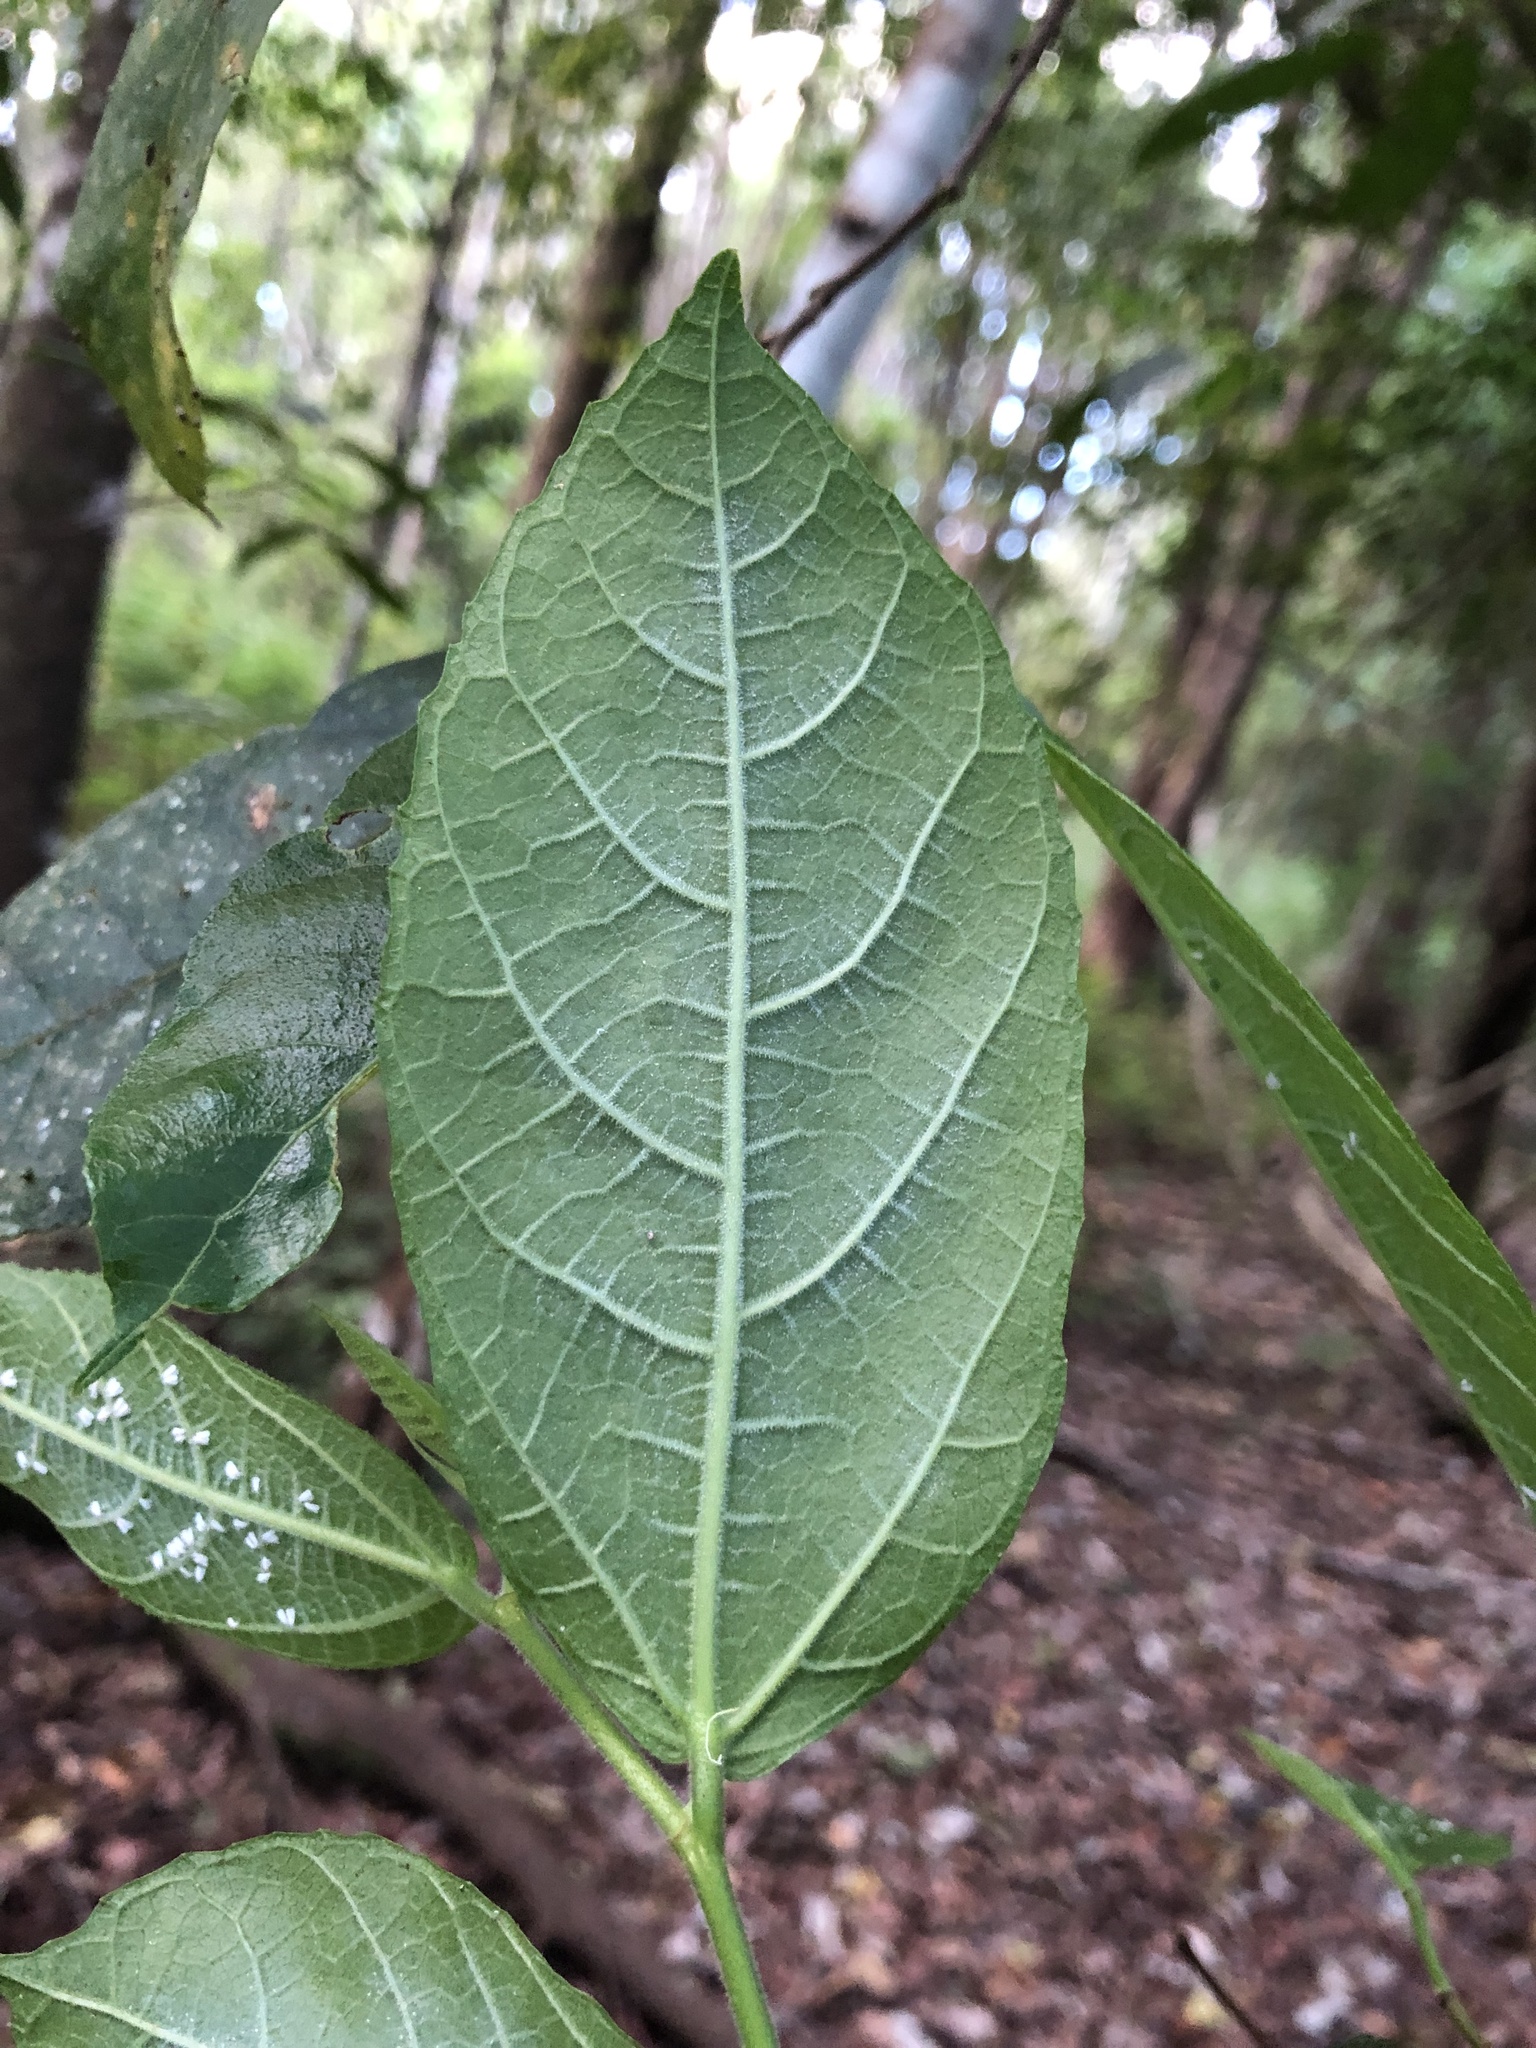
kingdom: Plantae
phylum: Tracheophyta
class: Magnoliopsida
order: Rosales
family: Moraceae
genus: Ficus
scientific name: Ficus coronata
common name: Creek sandpaper fig
